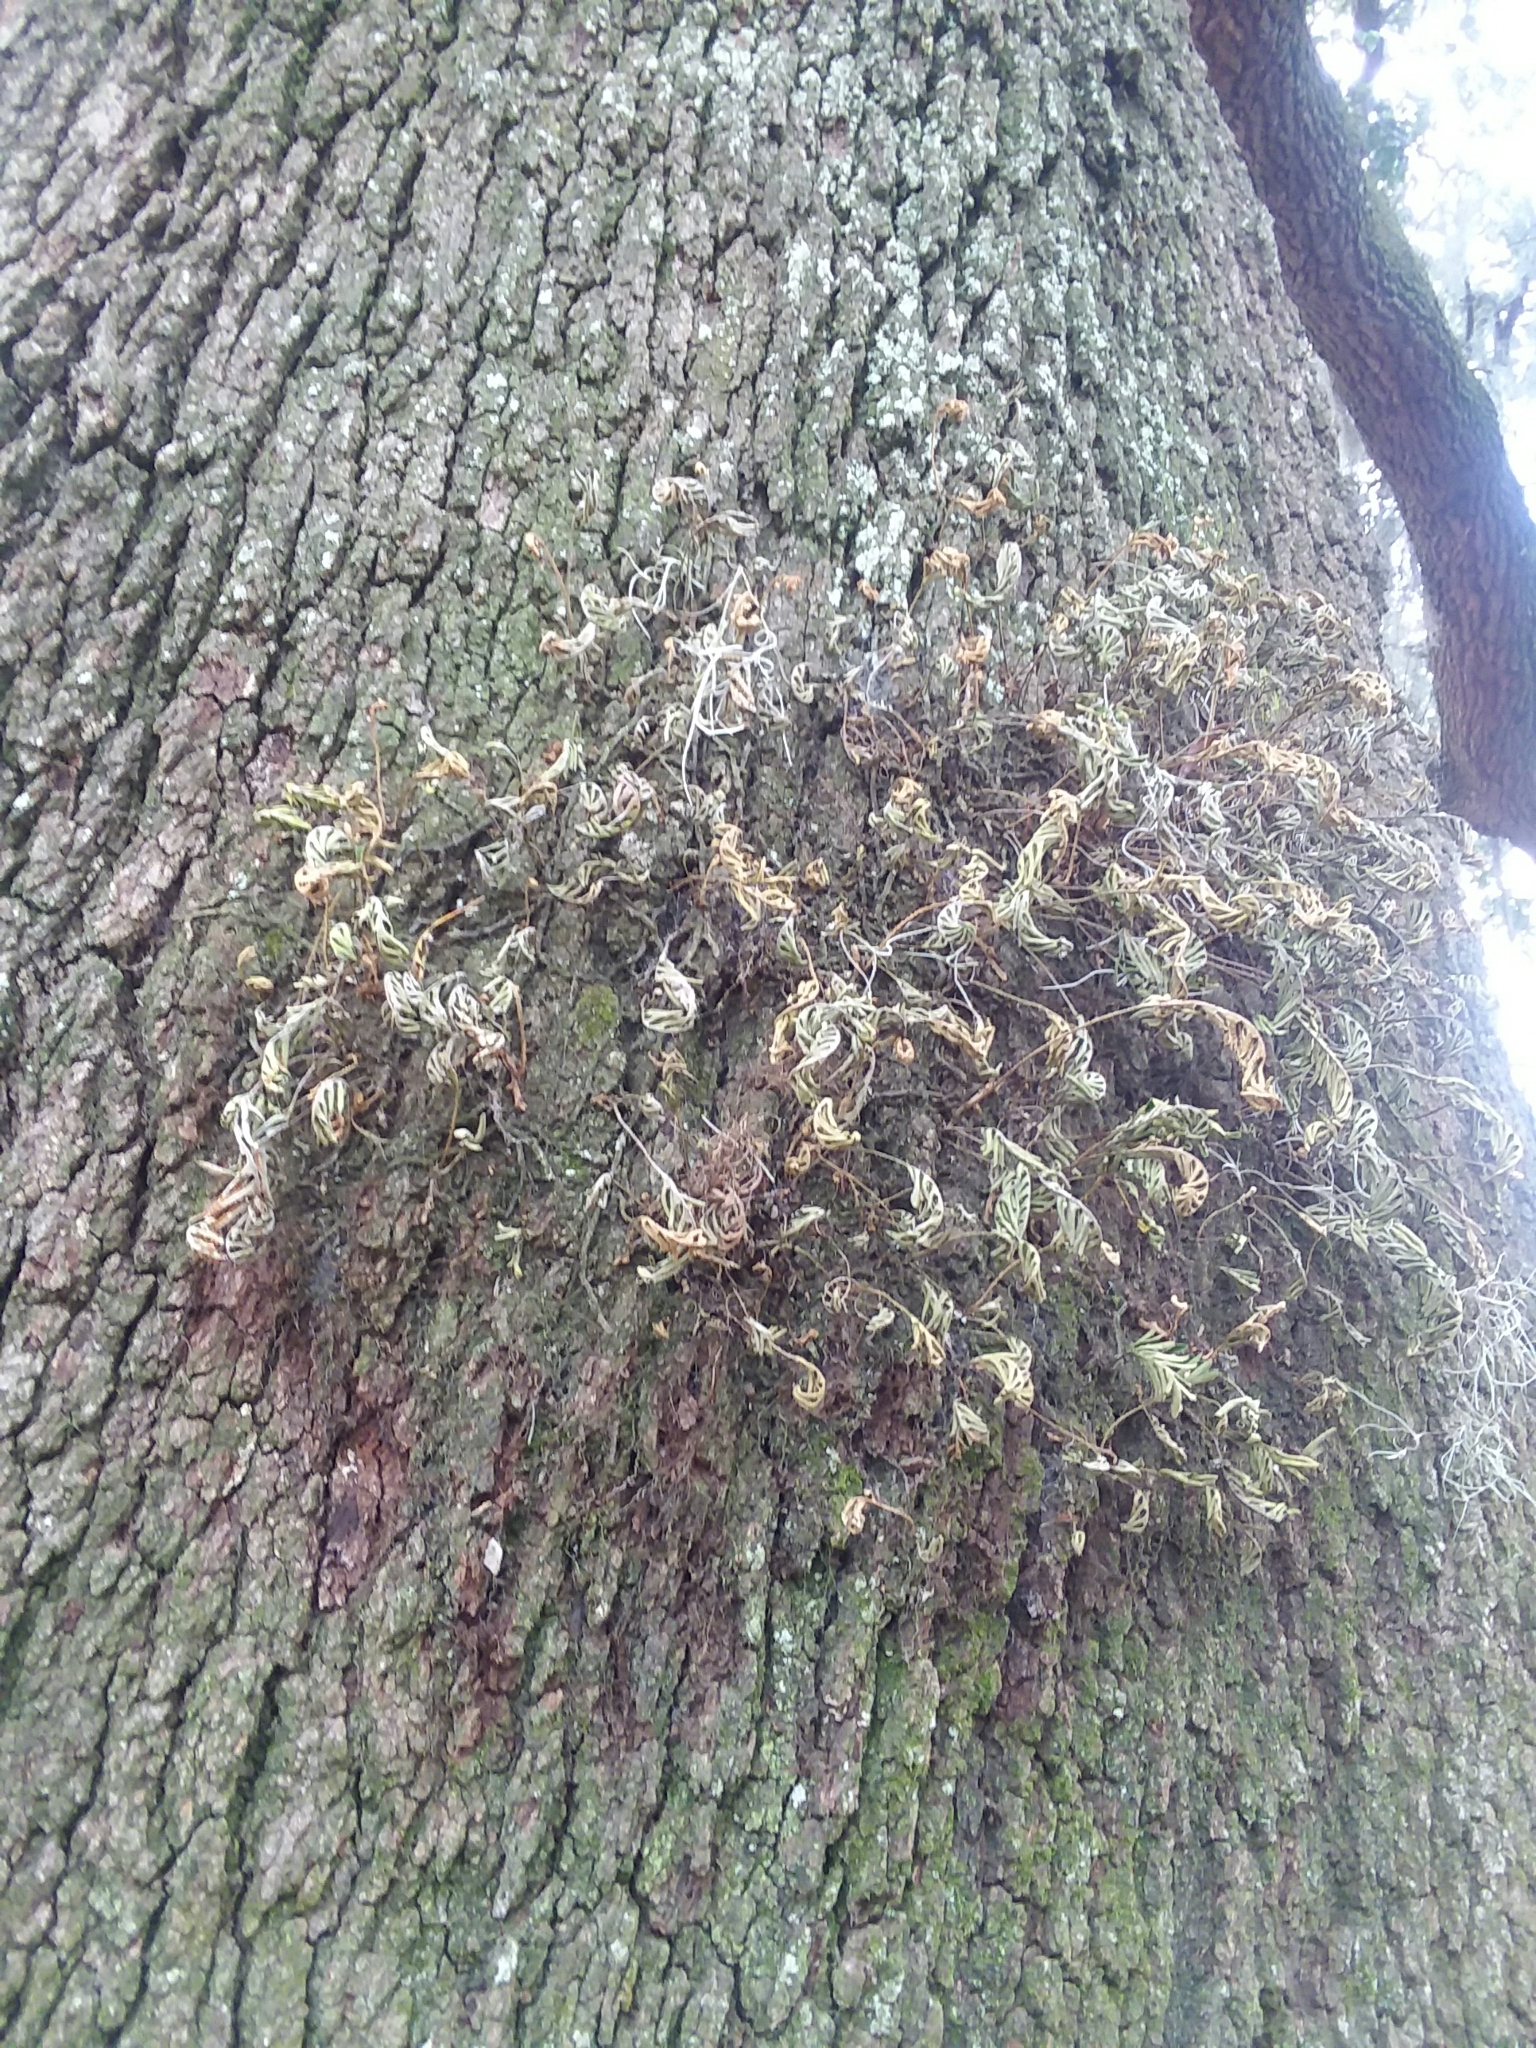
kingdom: Plantae
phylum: Tracheophyta
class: Polypodiopsida
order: Polypodiales
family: Polypodiaceae
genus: Pleopeltis
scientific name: Pleopeltis michauxiana
